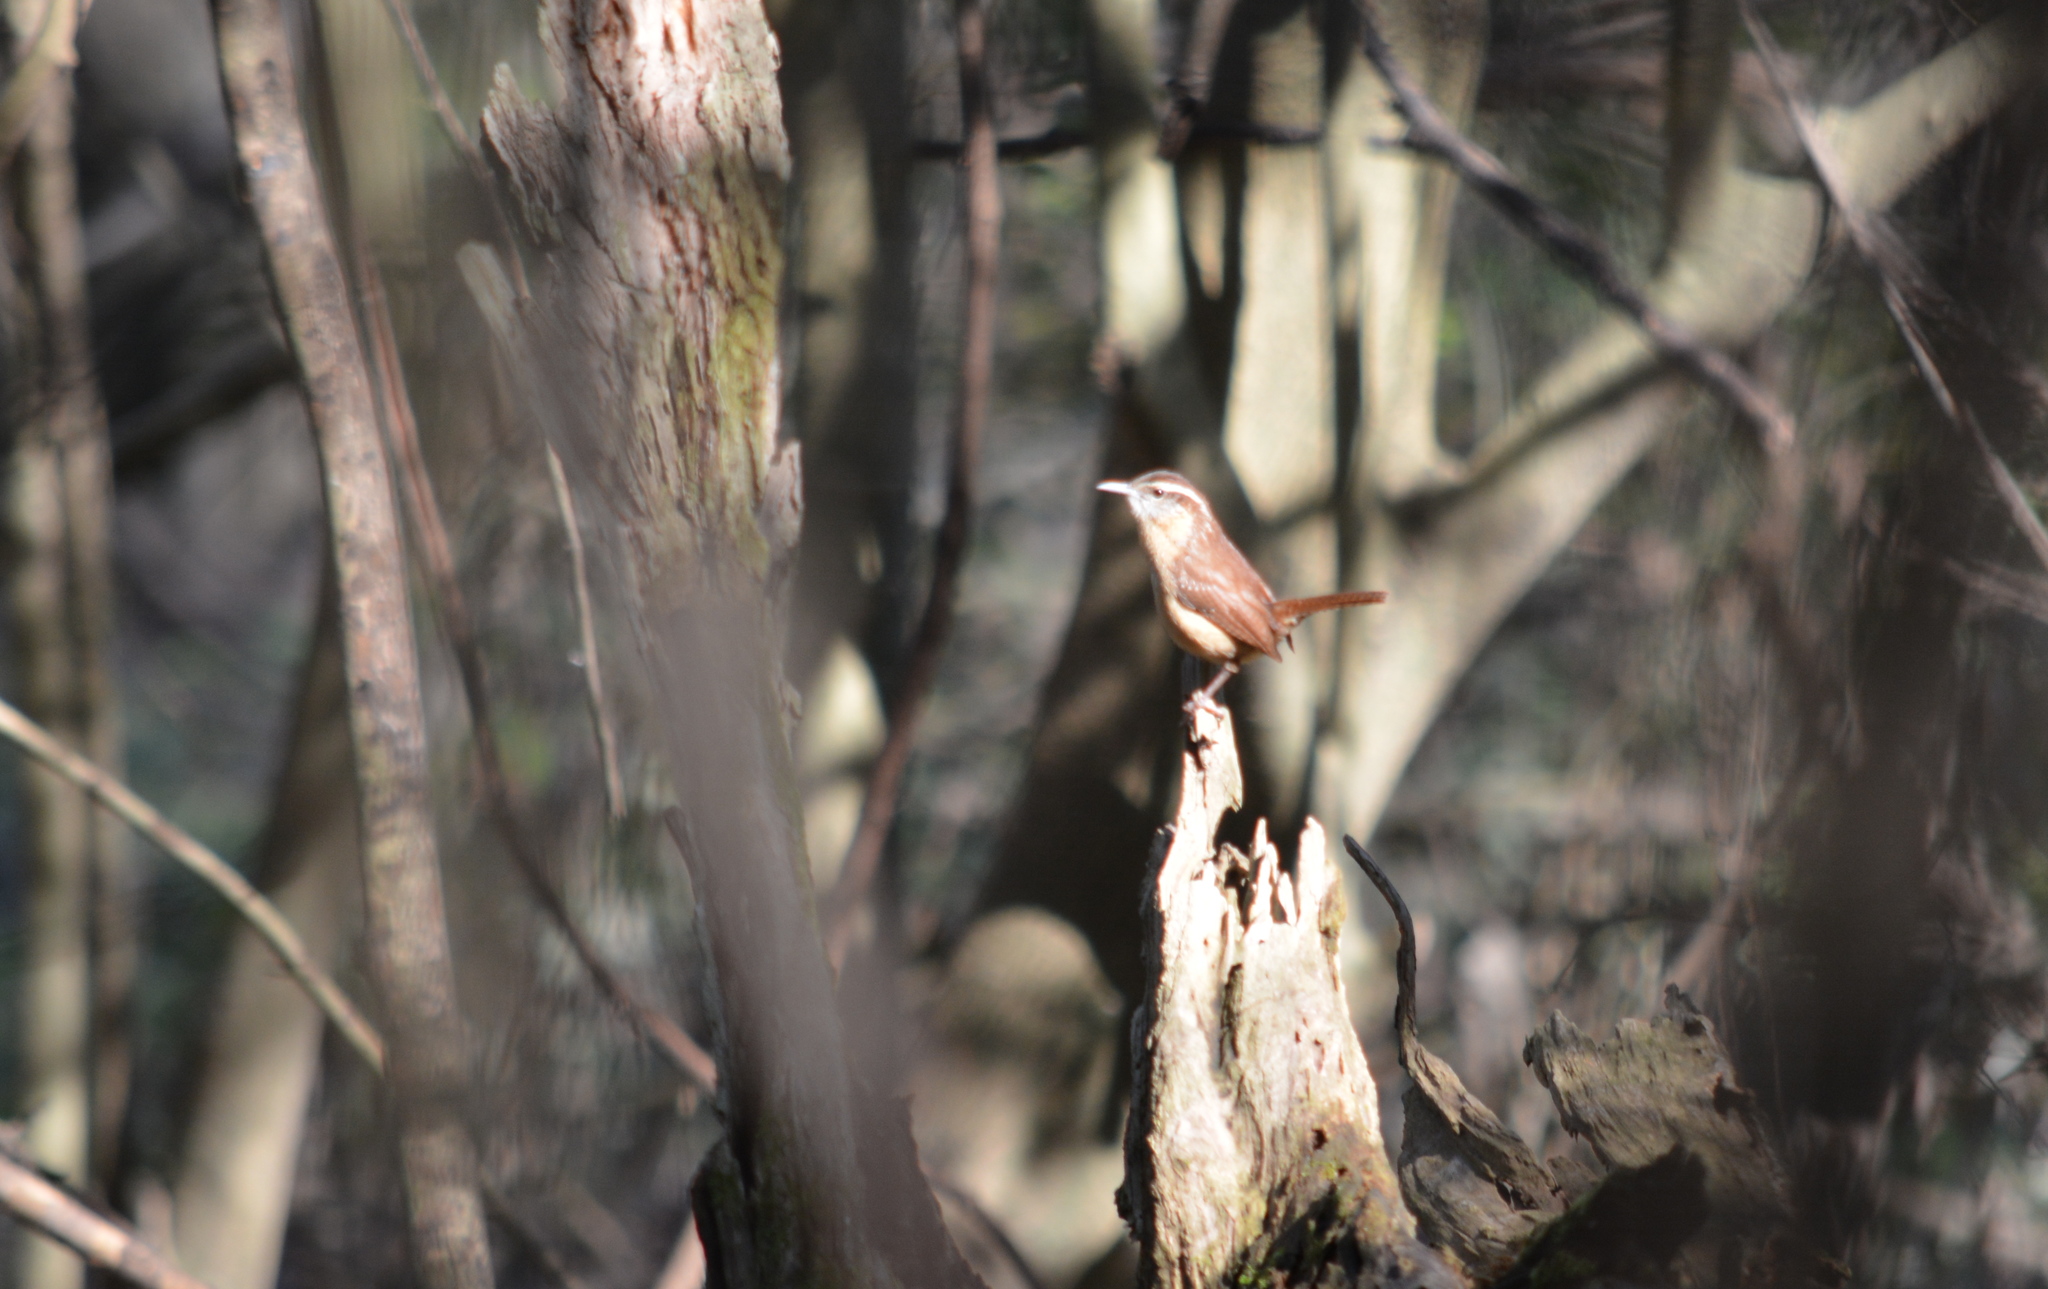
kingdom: Animalia
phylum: Chordata
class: Aves
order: Passeriformes
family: Troglodytidae
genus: Thryothorus
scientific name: Thryothorus ludovicianus
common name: Carolina wren
